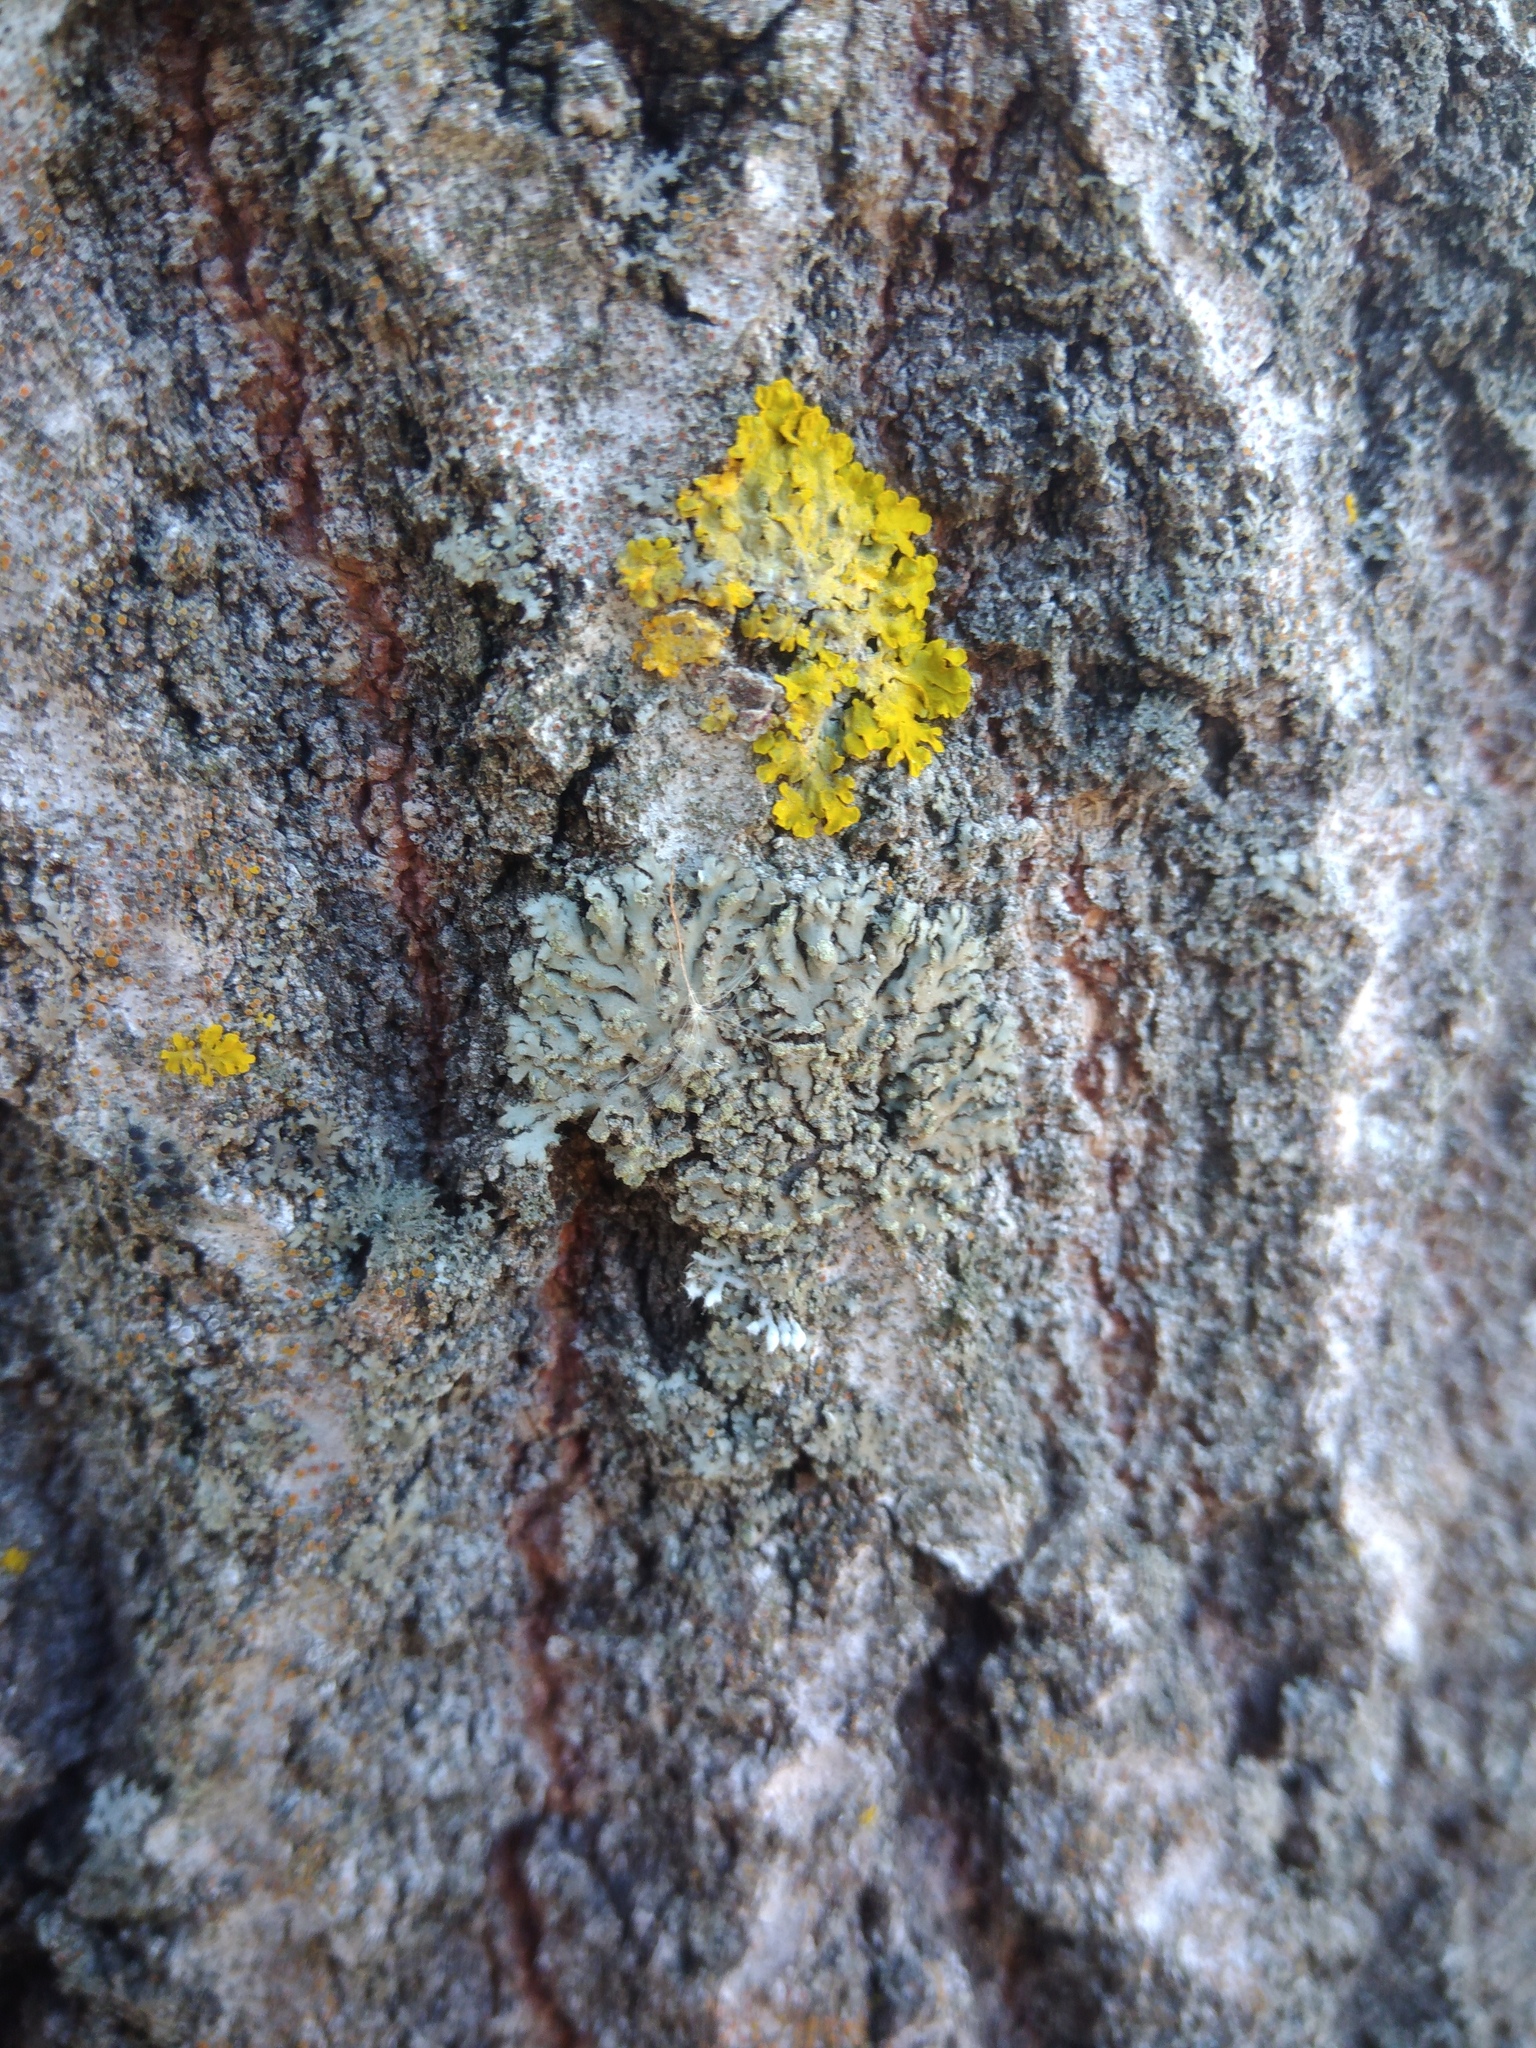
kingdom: Fungi
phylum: Ascomycota
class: Lecanoromycetes
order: Caliciales
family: Physciaceae
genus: Phaeophyscia
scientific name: Phaeophyscia orbicularis
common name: Mealy shadow lichen
